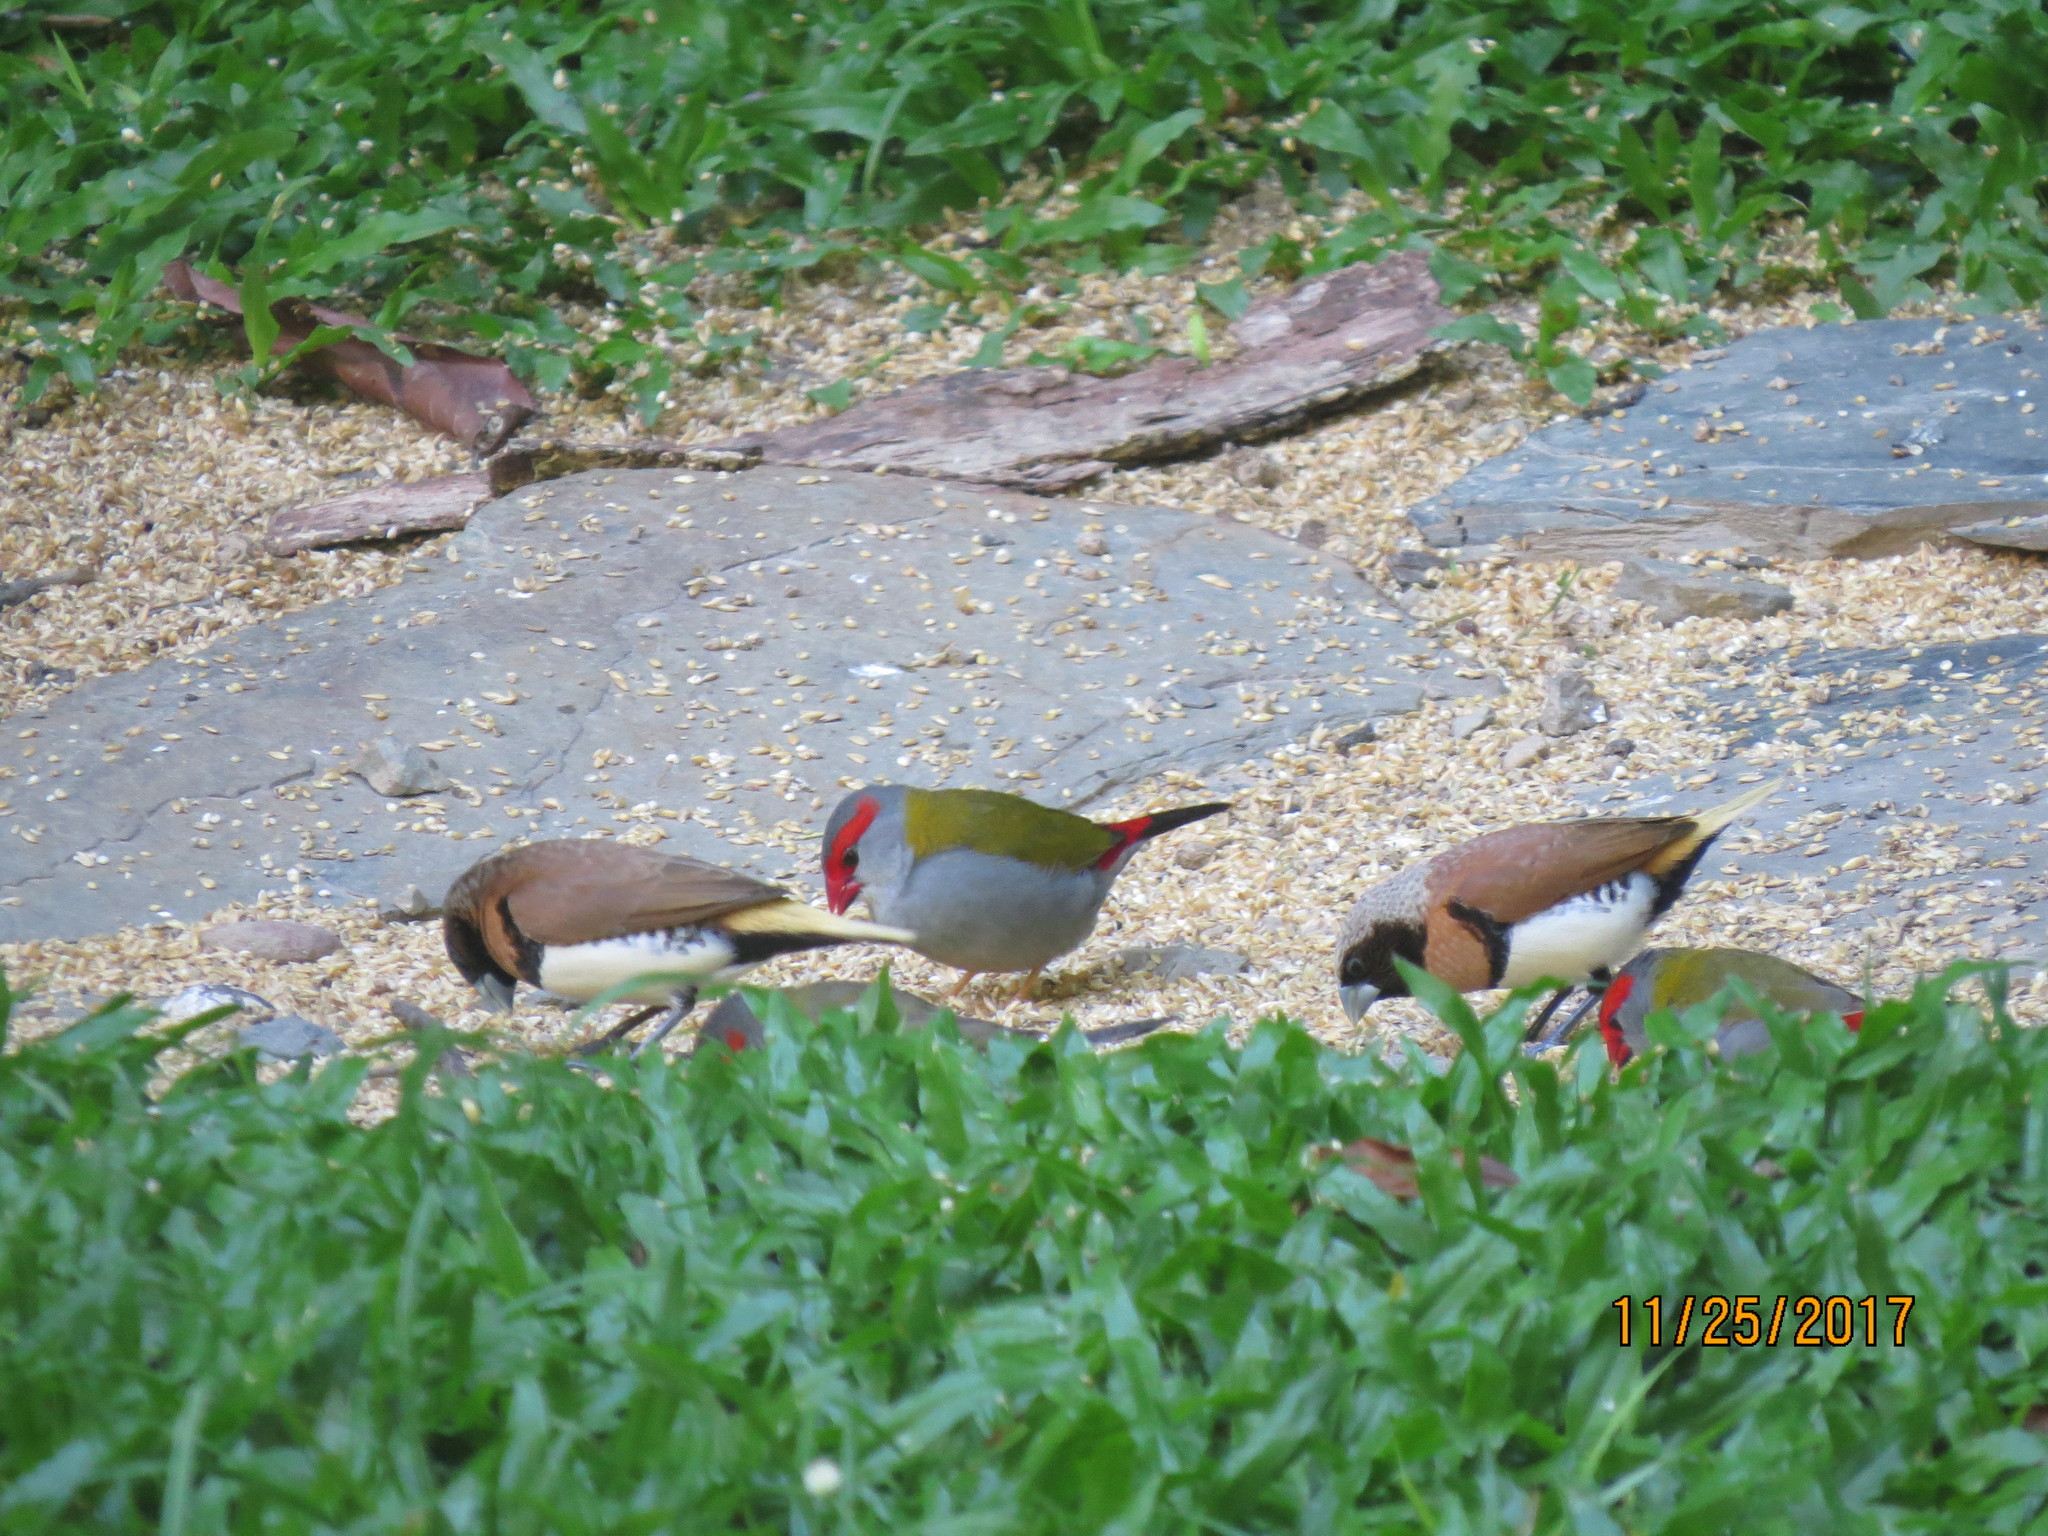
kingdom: Animalia
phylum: Chordata
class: Aves
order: Passeriformes
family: Estrildidae
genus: Neochmia
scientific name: Neochmia temporalis
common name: Red-browed finch
